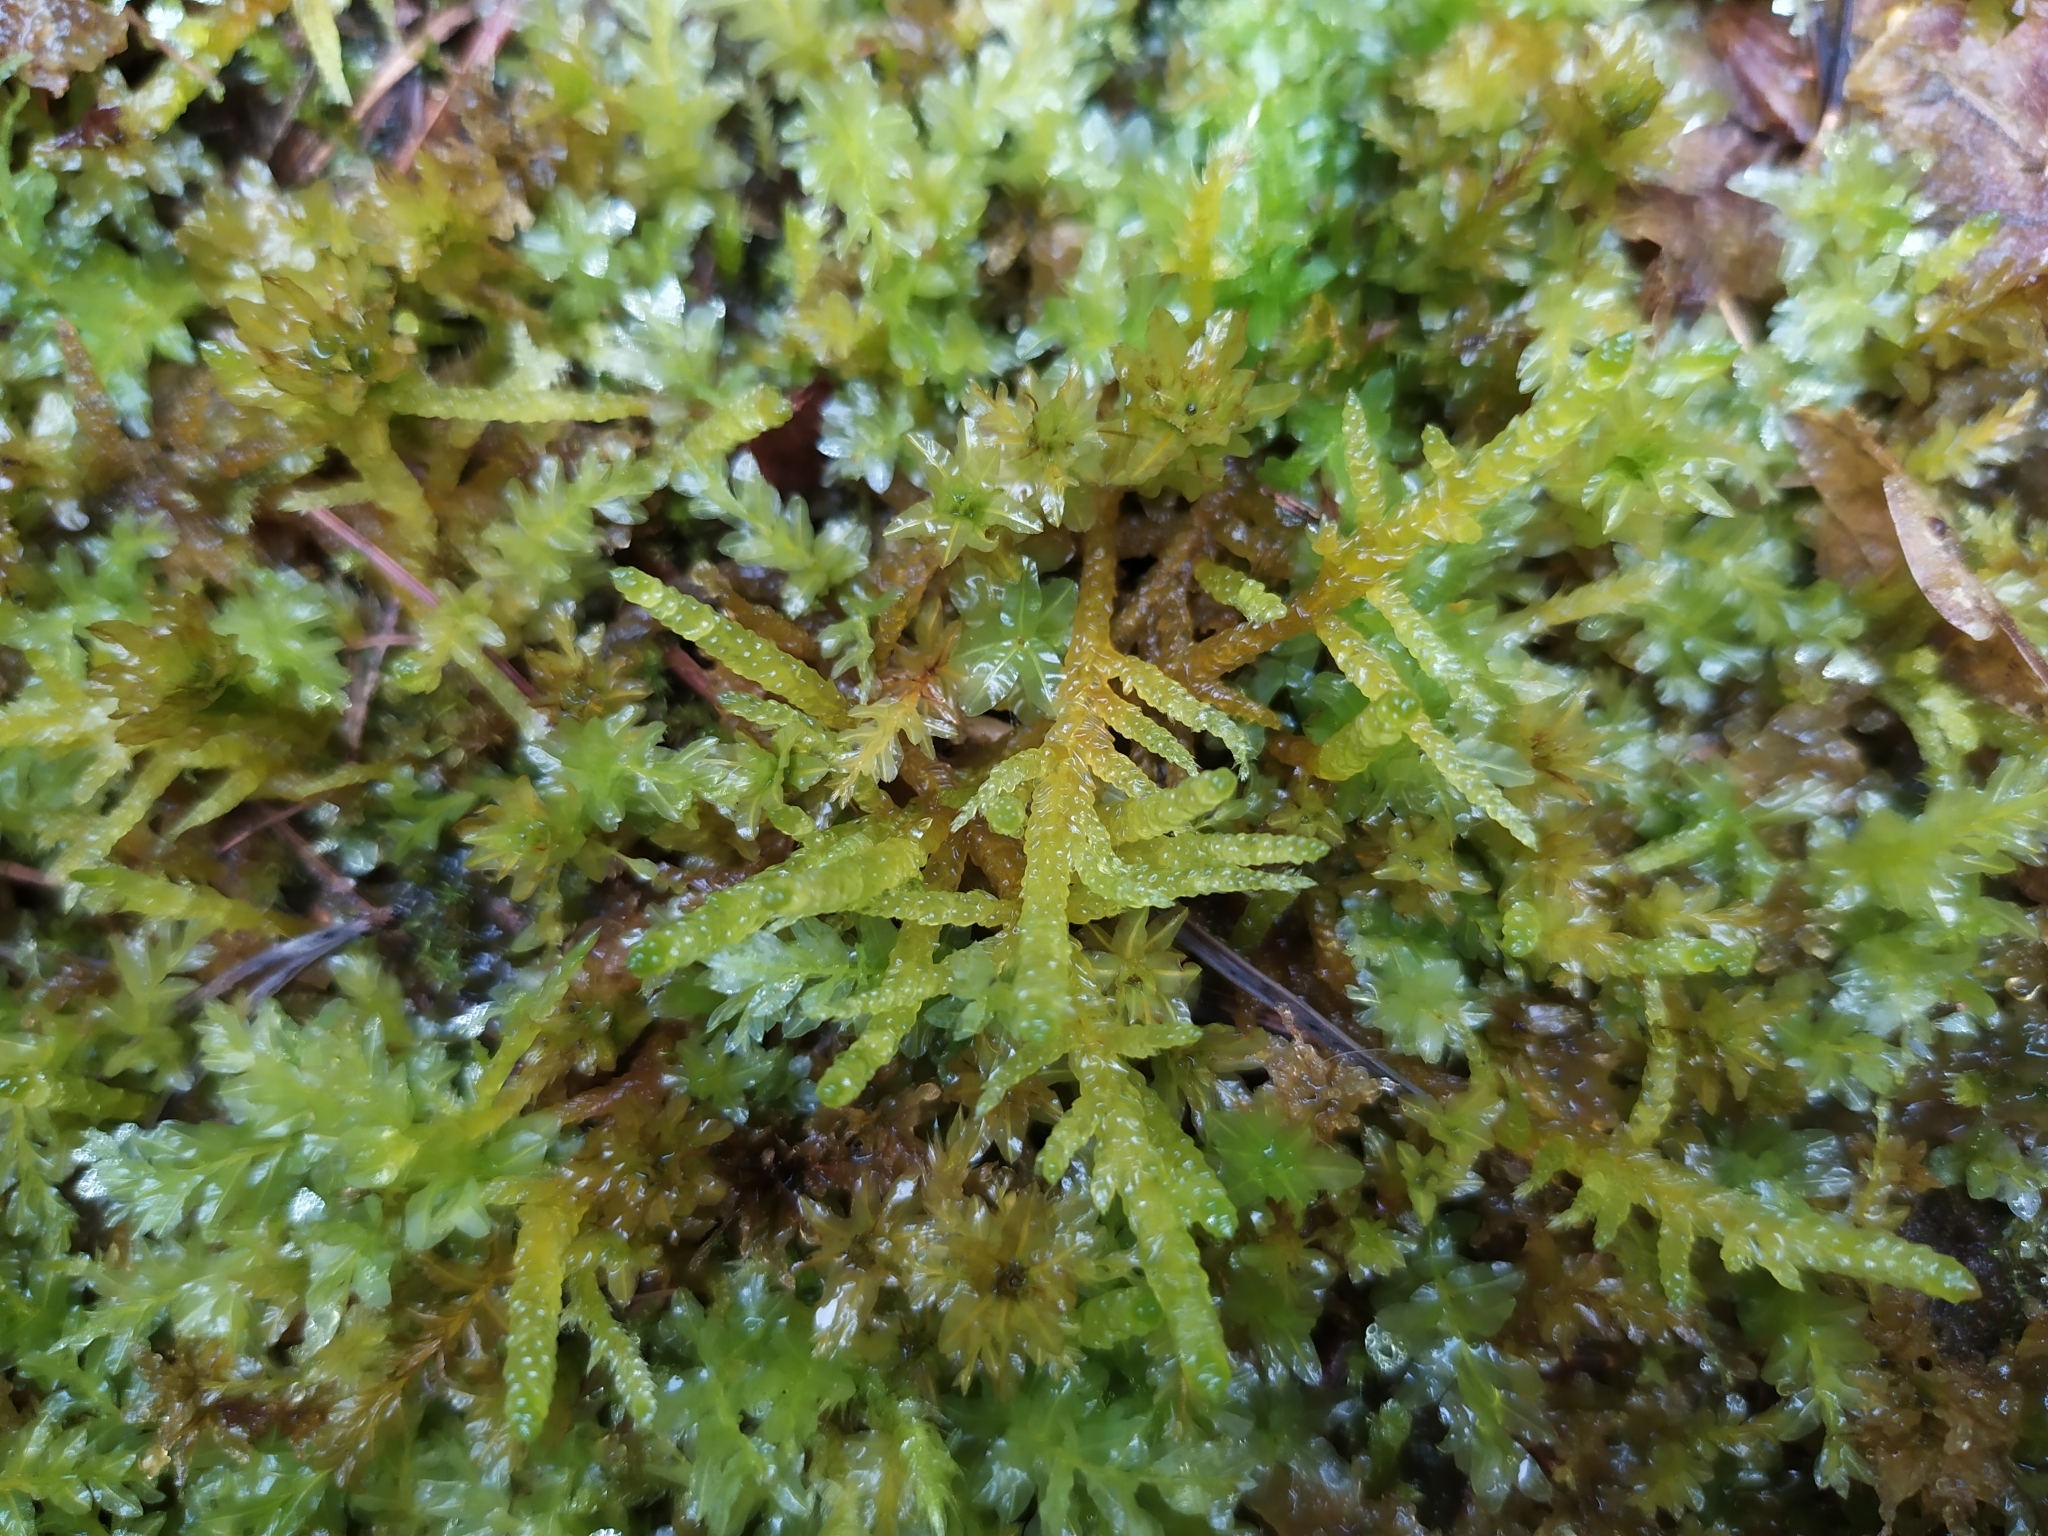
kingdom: Plantae
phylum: Bryophyta
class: Bryopsida
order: Hypnales
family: Brachytheciaceae
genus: Pseudoscleropodium
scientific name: Pseudoscleropodium purum
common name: Neat feather-moss
